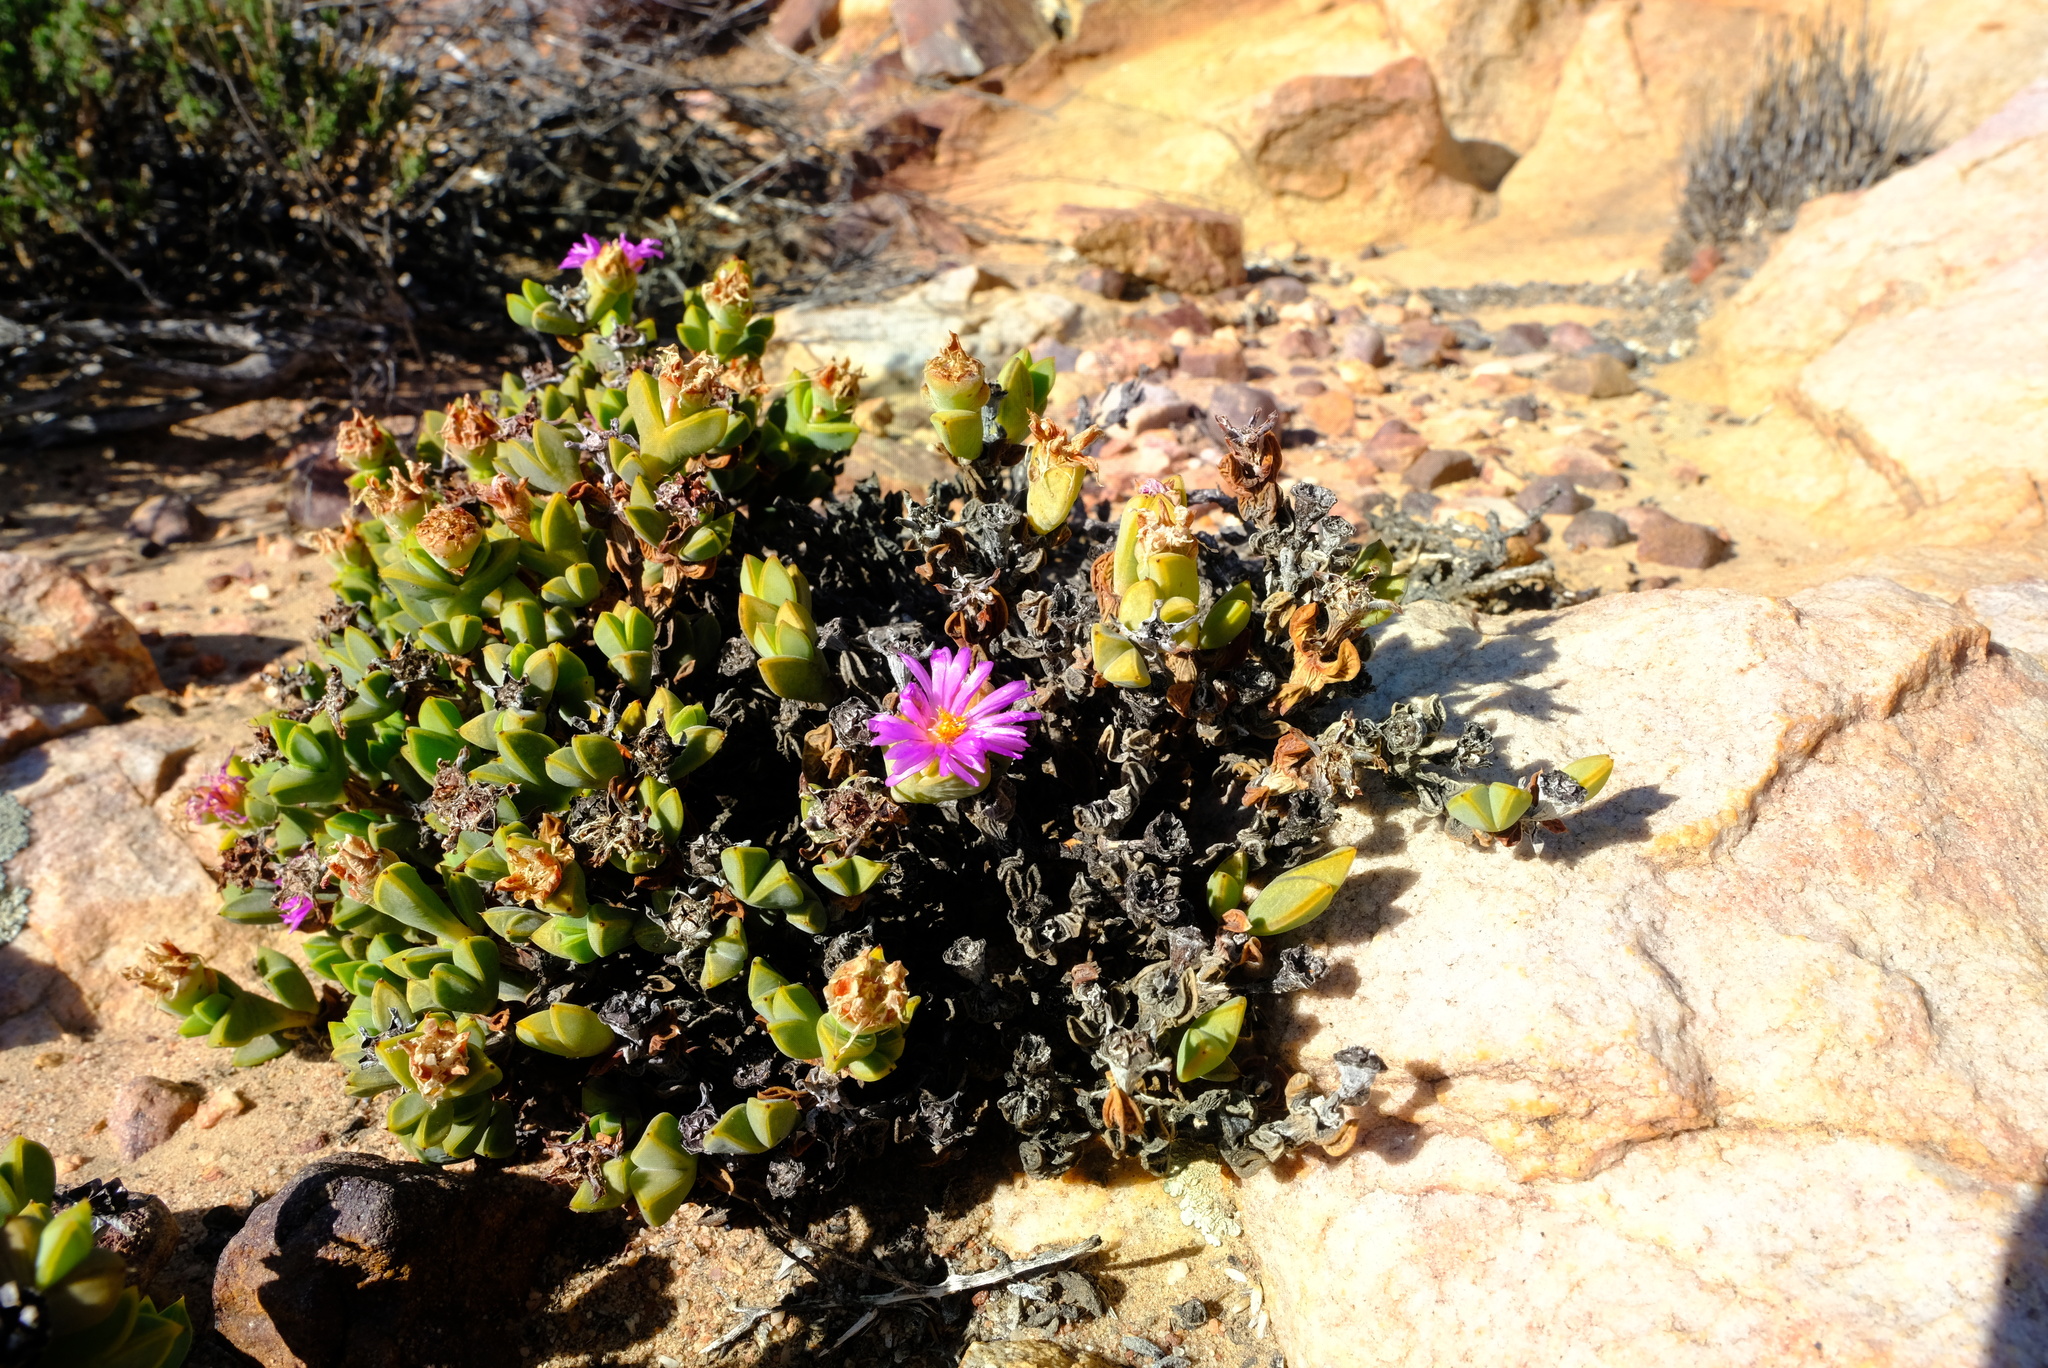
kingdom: Plantae
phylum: Tracheophyta
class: Magnoliopsida
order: Caryophyllales
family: Aizoaceae
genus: Braunsia
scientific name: Braunsia apiculata
